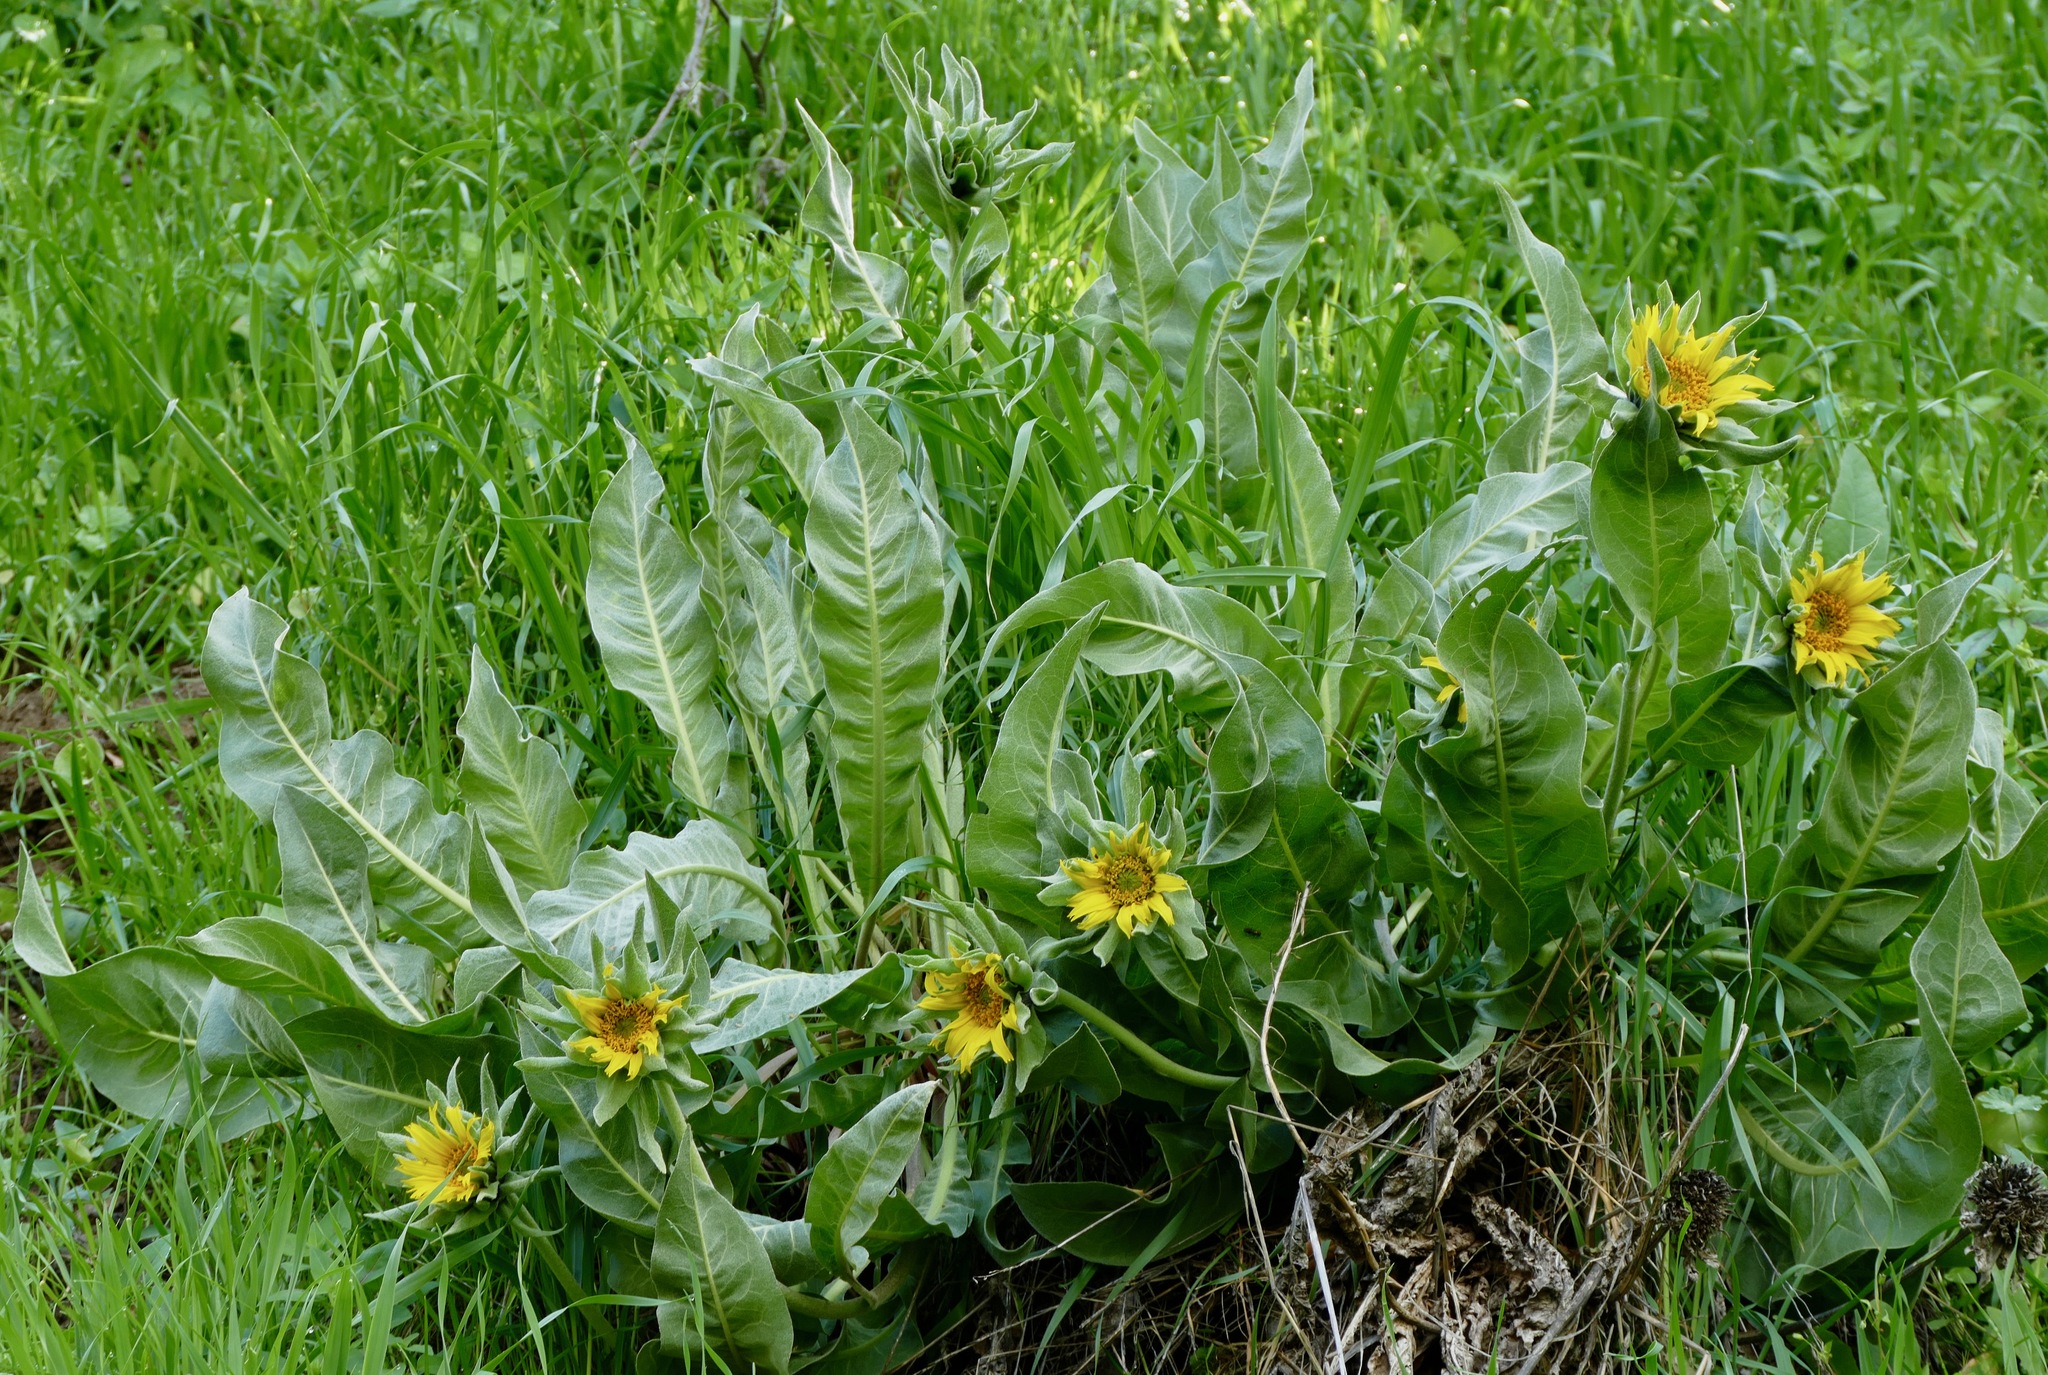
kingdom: Plantae
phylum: Tracheophyta
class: Magnoliopsida
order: Asterales
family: Asteraceae
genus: Wyethia
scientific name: Wyethia helenioides
